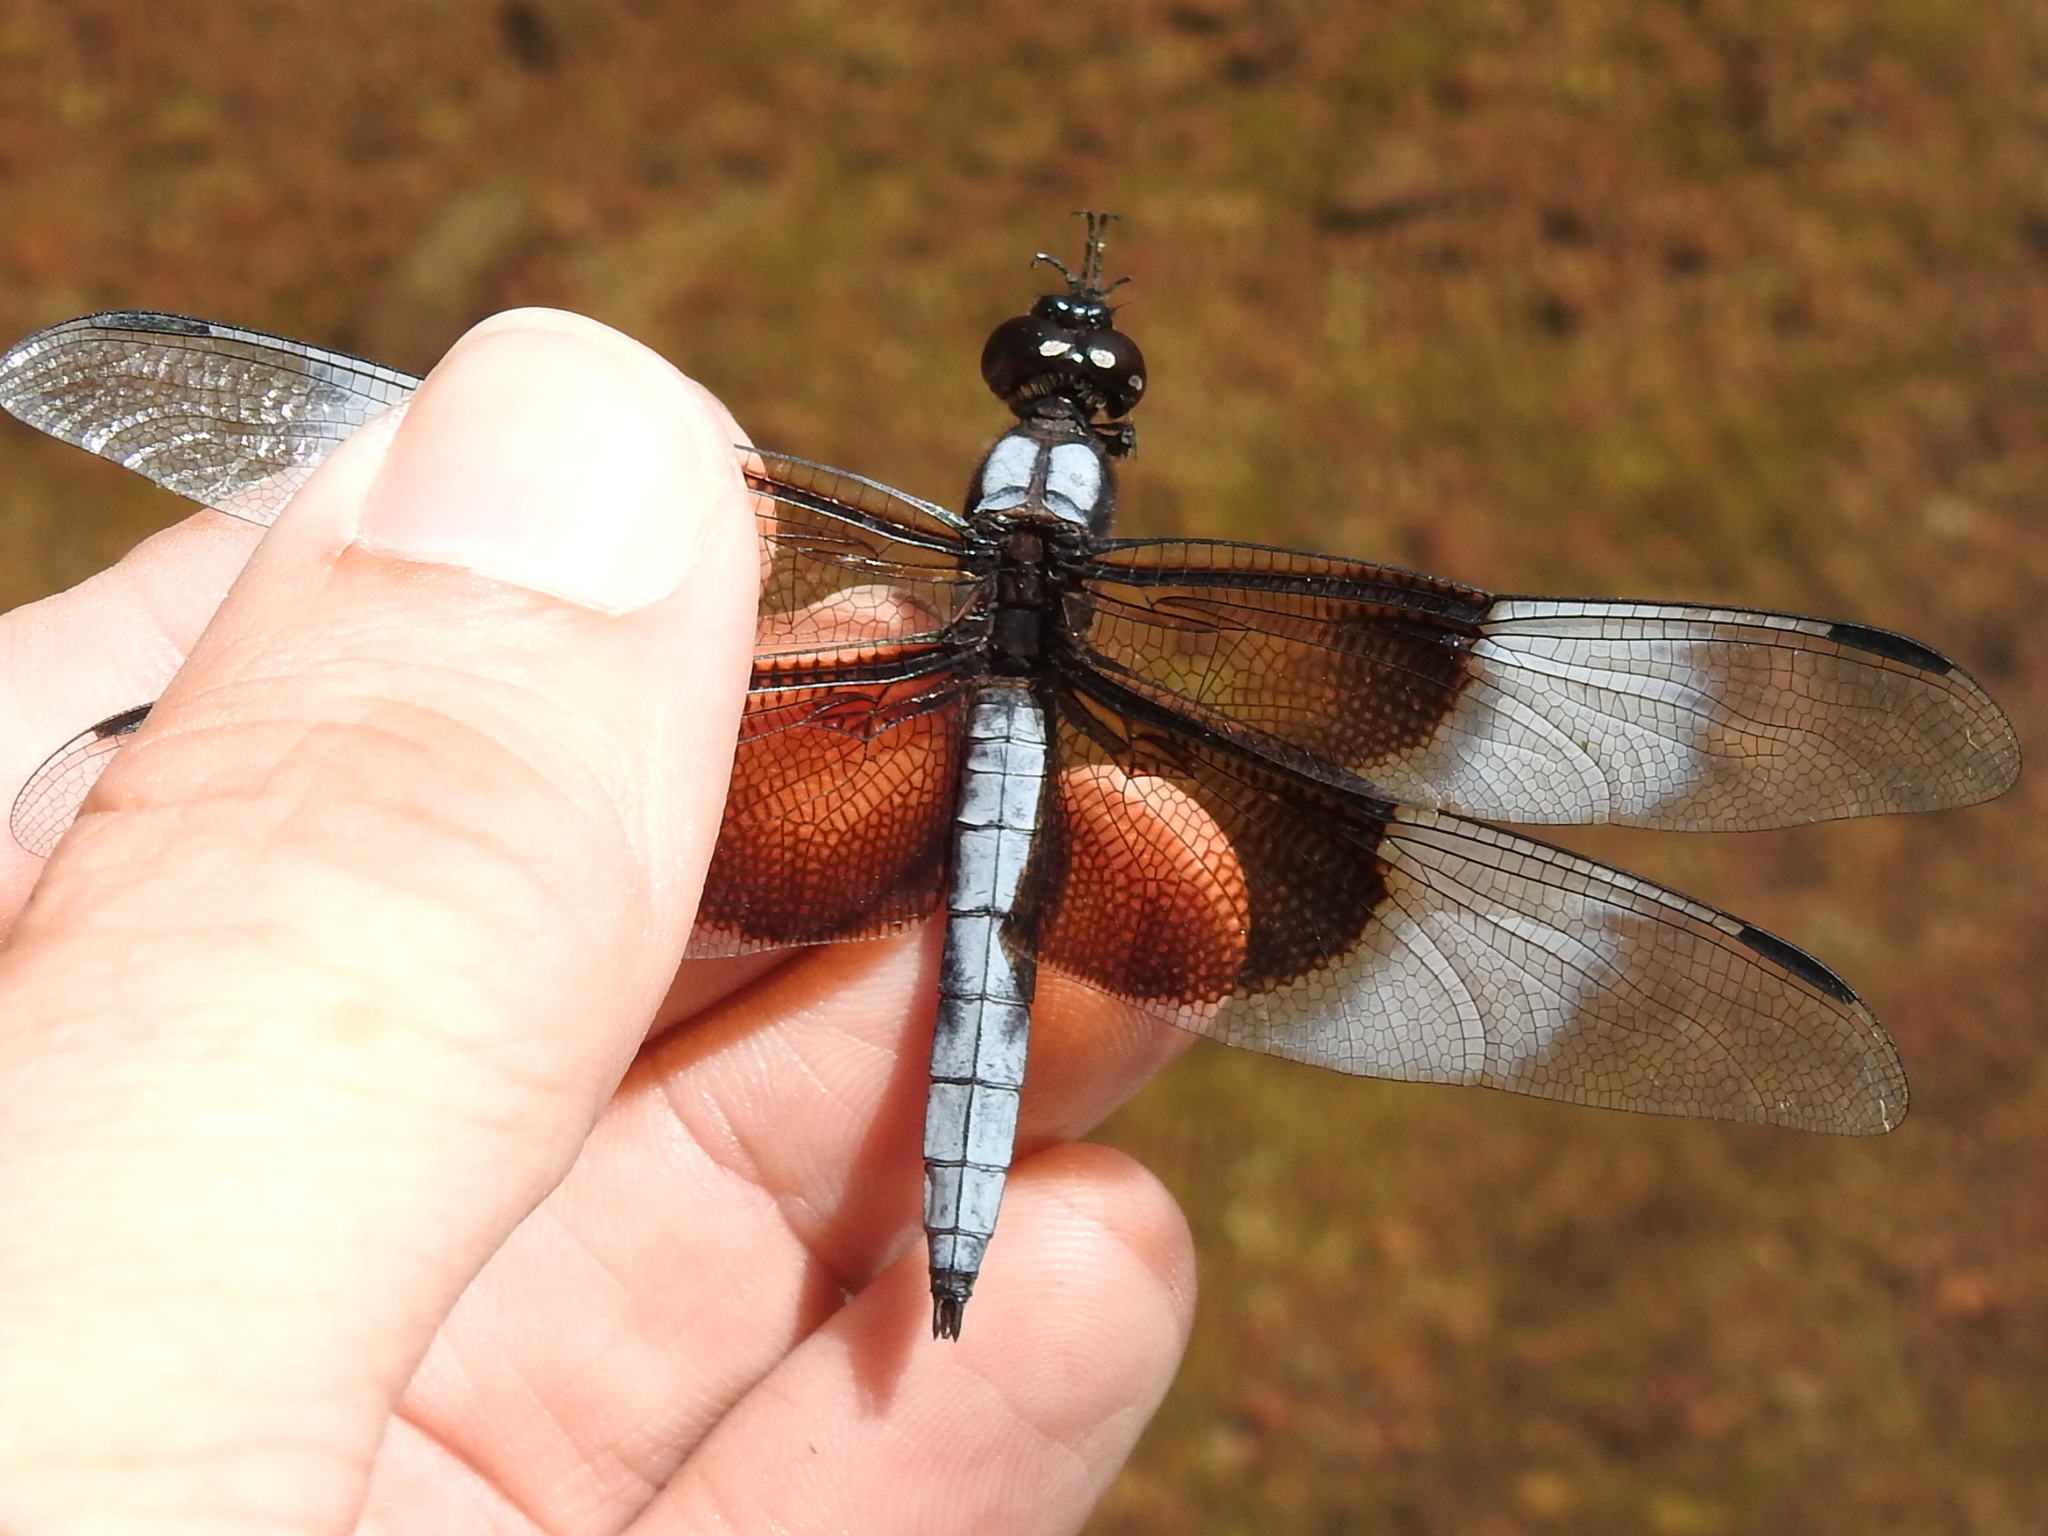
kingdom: Animalia
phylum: Arthropoda
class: Insecta
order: Odonata
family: Libellulidae
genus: Libellula
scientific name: Libellula luctuosa
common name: Widow skimmer
